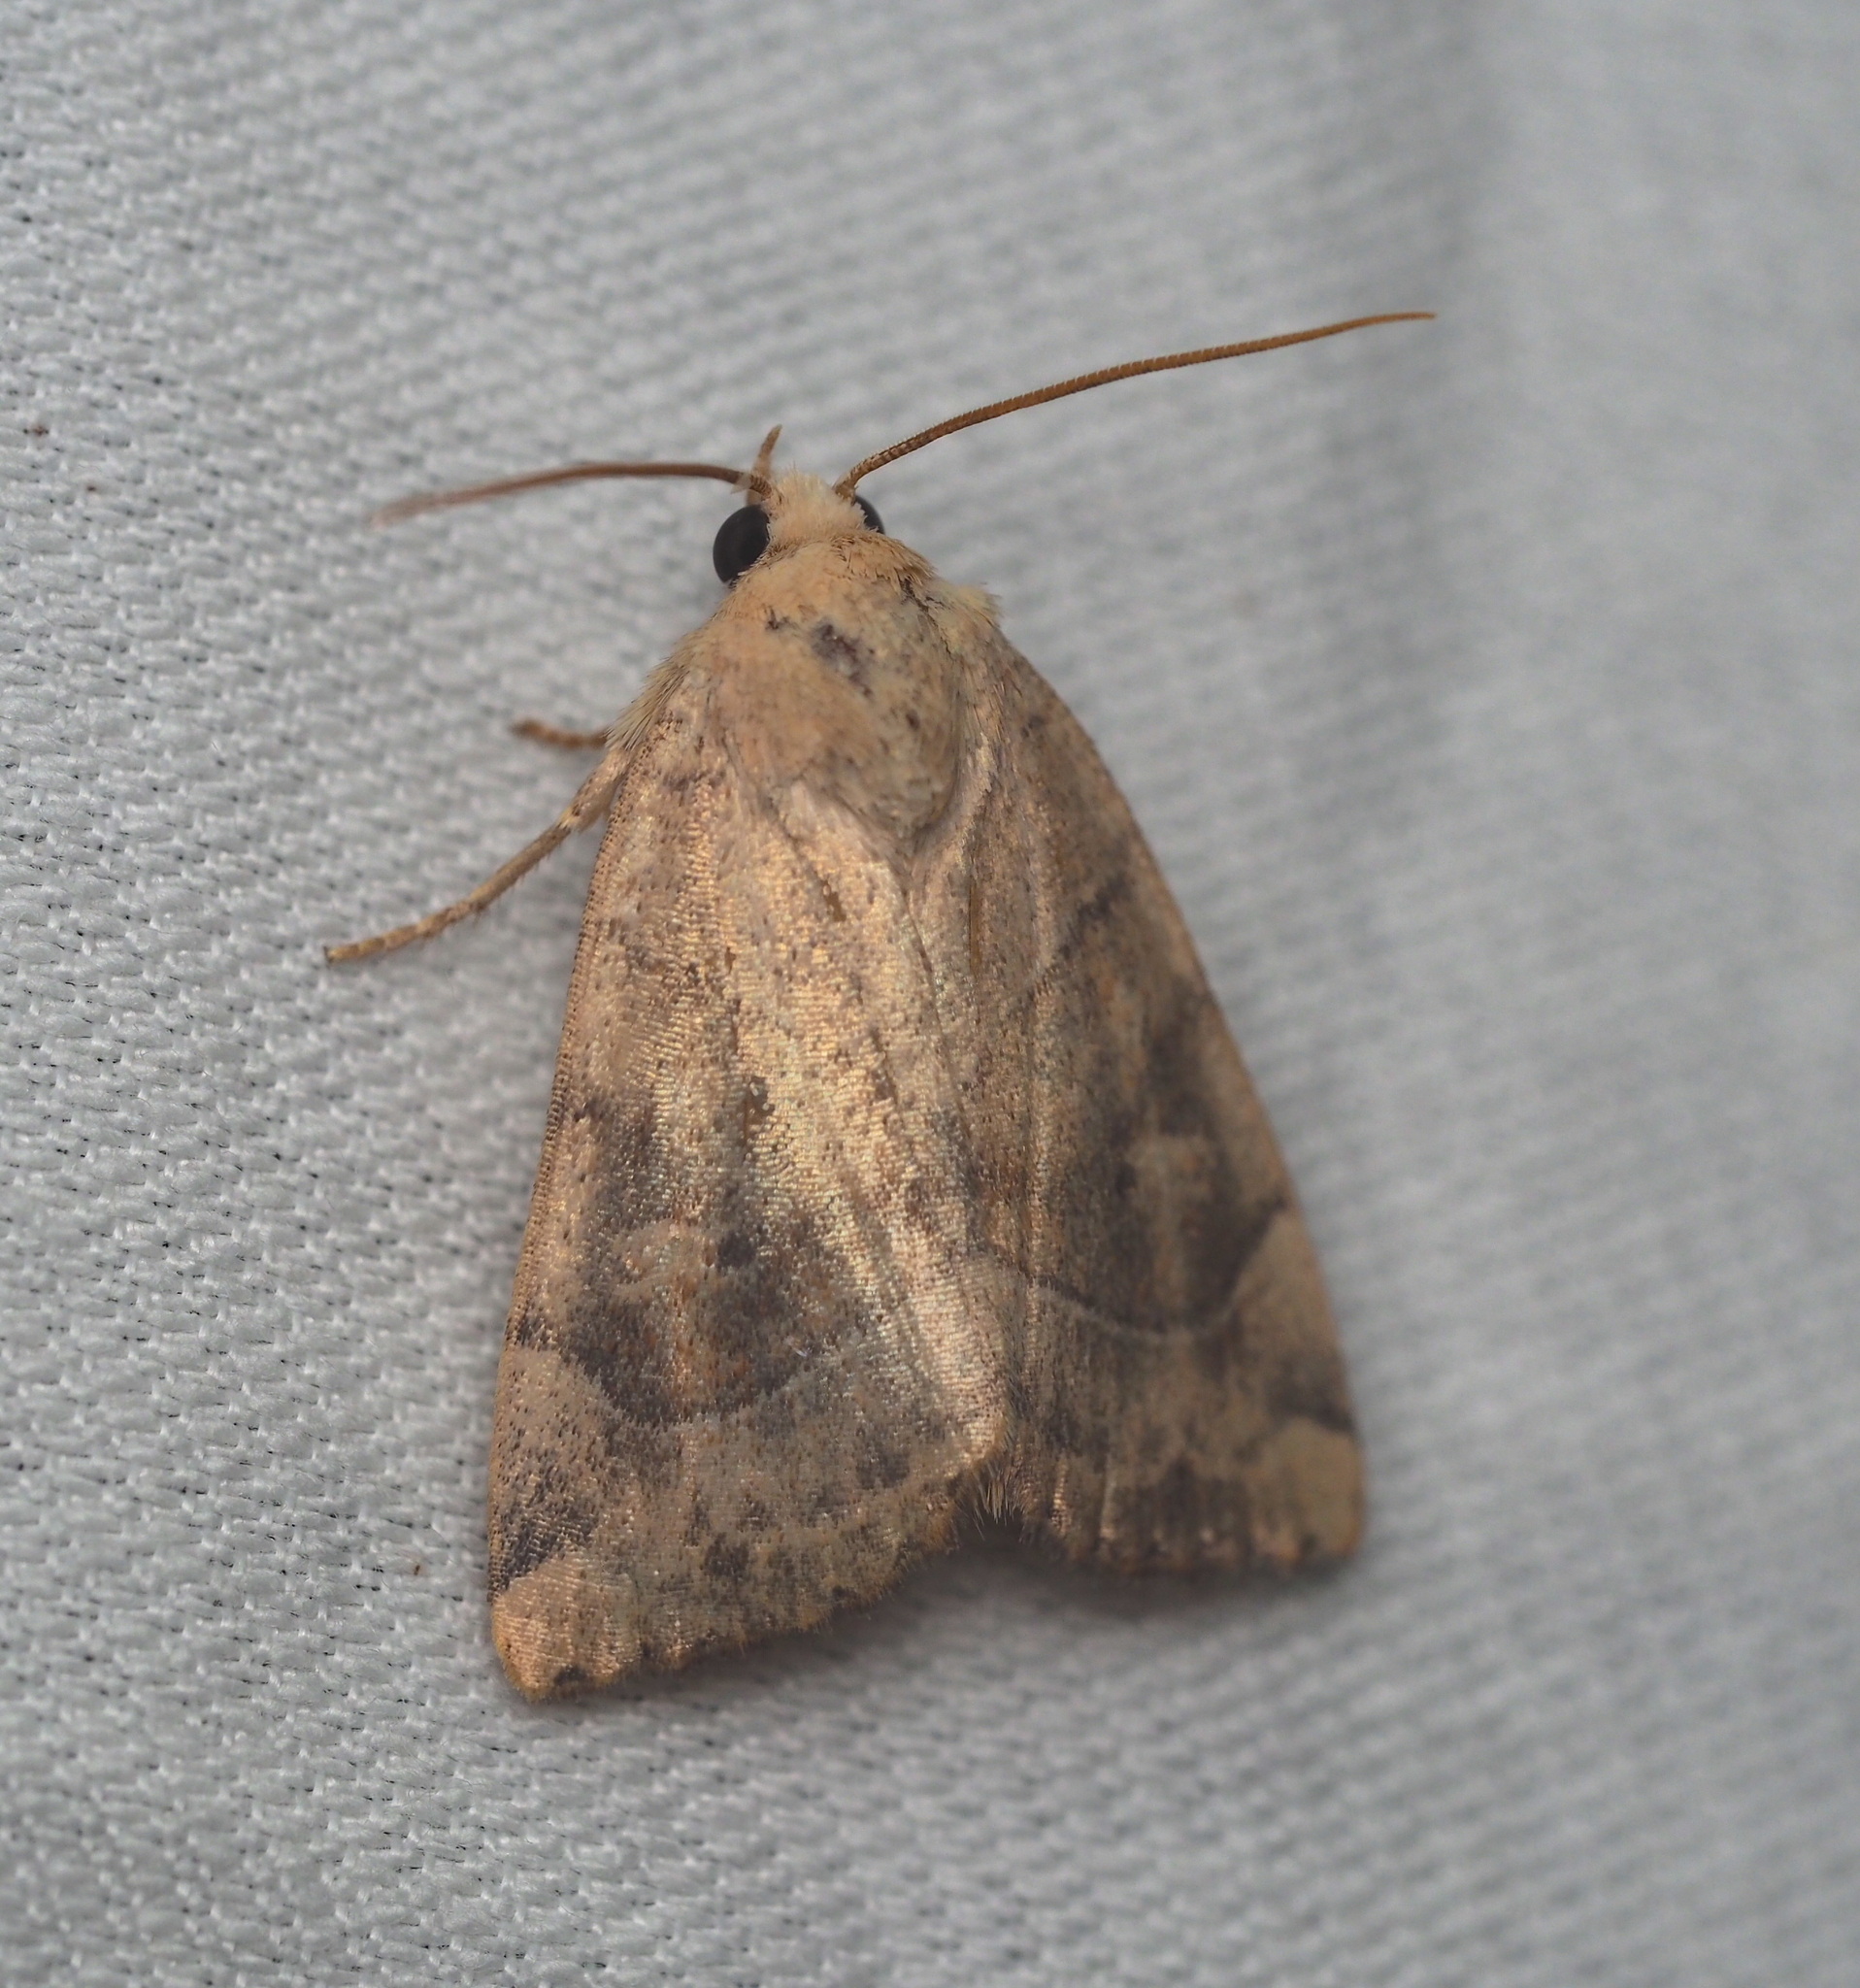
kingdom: Animalia
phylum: Arthropoda
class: Insecta
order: Lepidoptera
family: Noctuidae
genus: Cosmia
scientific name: Cosmia trapezina
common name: Dun-bar
